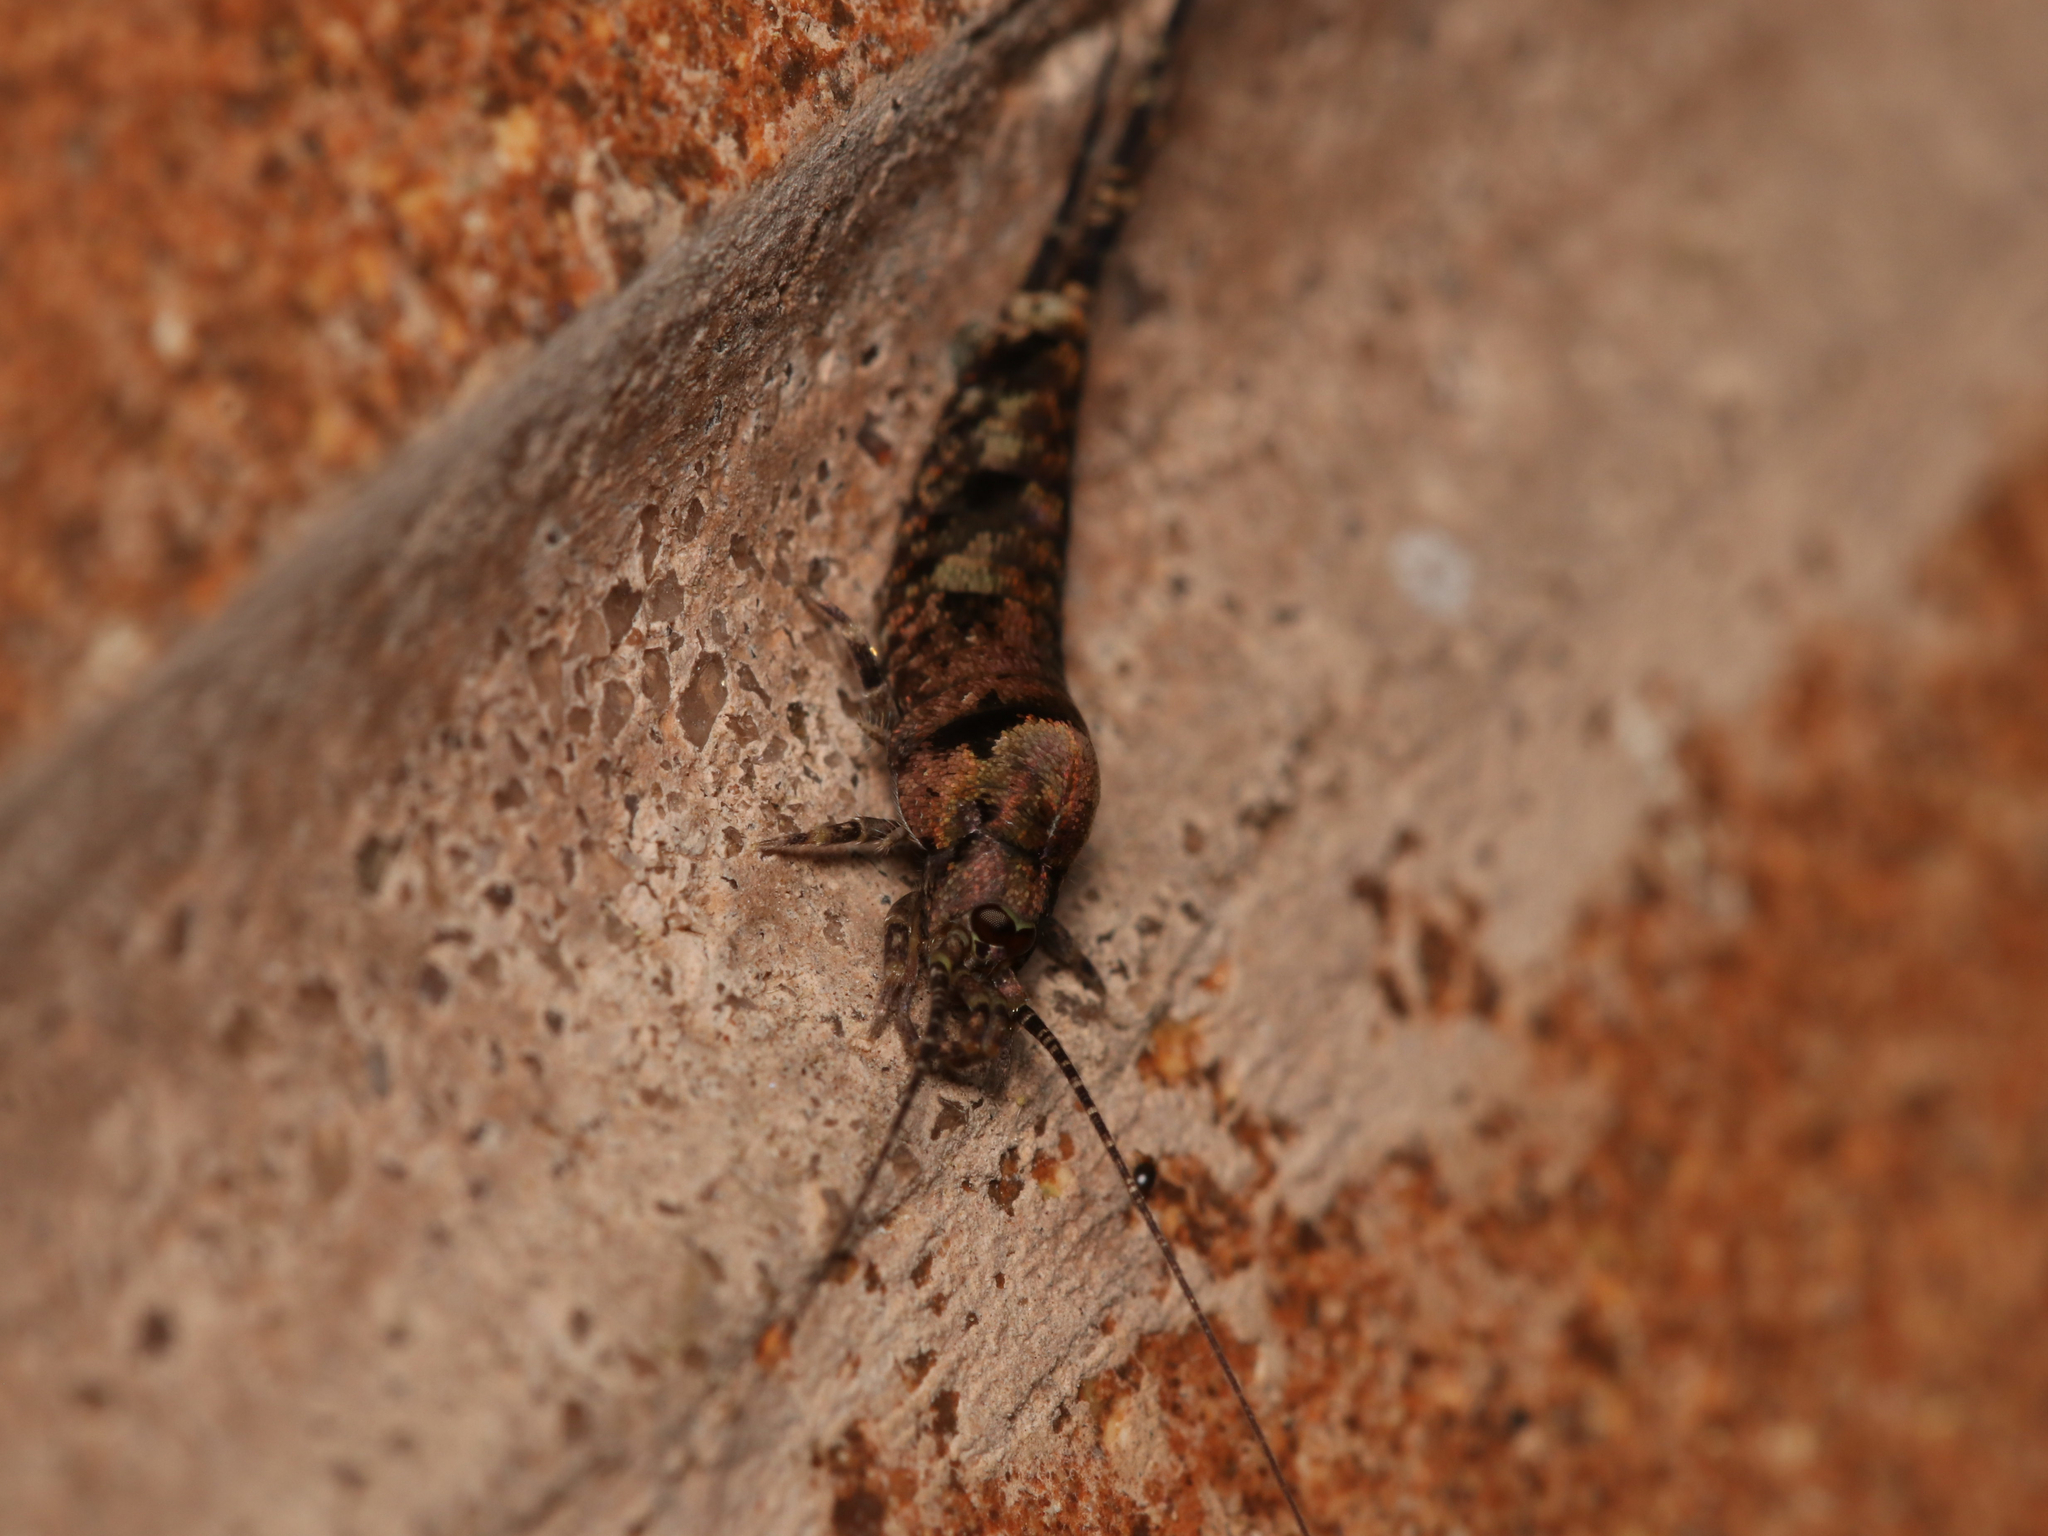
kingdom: Animalia
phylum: Arthropoda
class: Insecta
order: Archaeognatha
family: Machilidae
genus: Trigoniophthalmus
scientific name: Trigoniophthalmus alternatus
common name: Jumping bristletail
